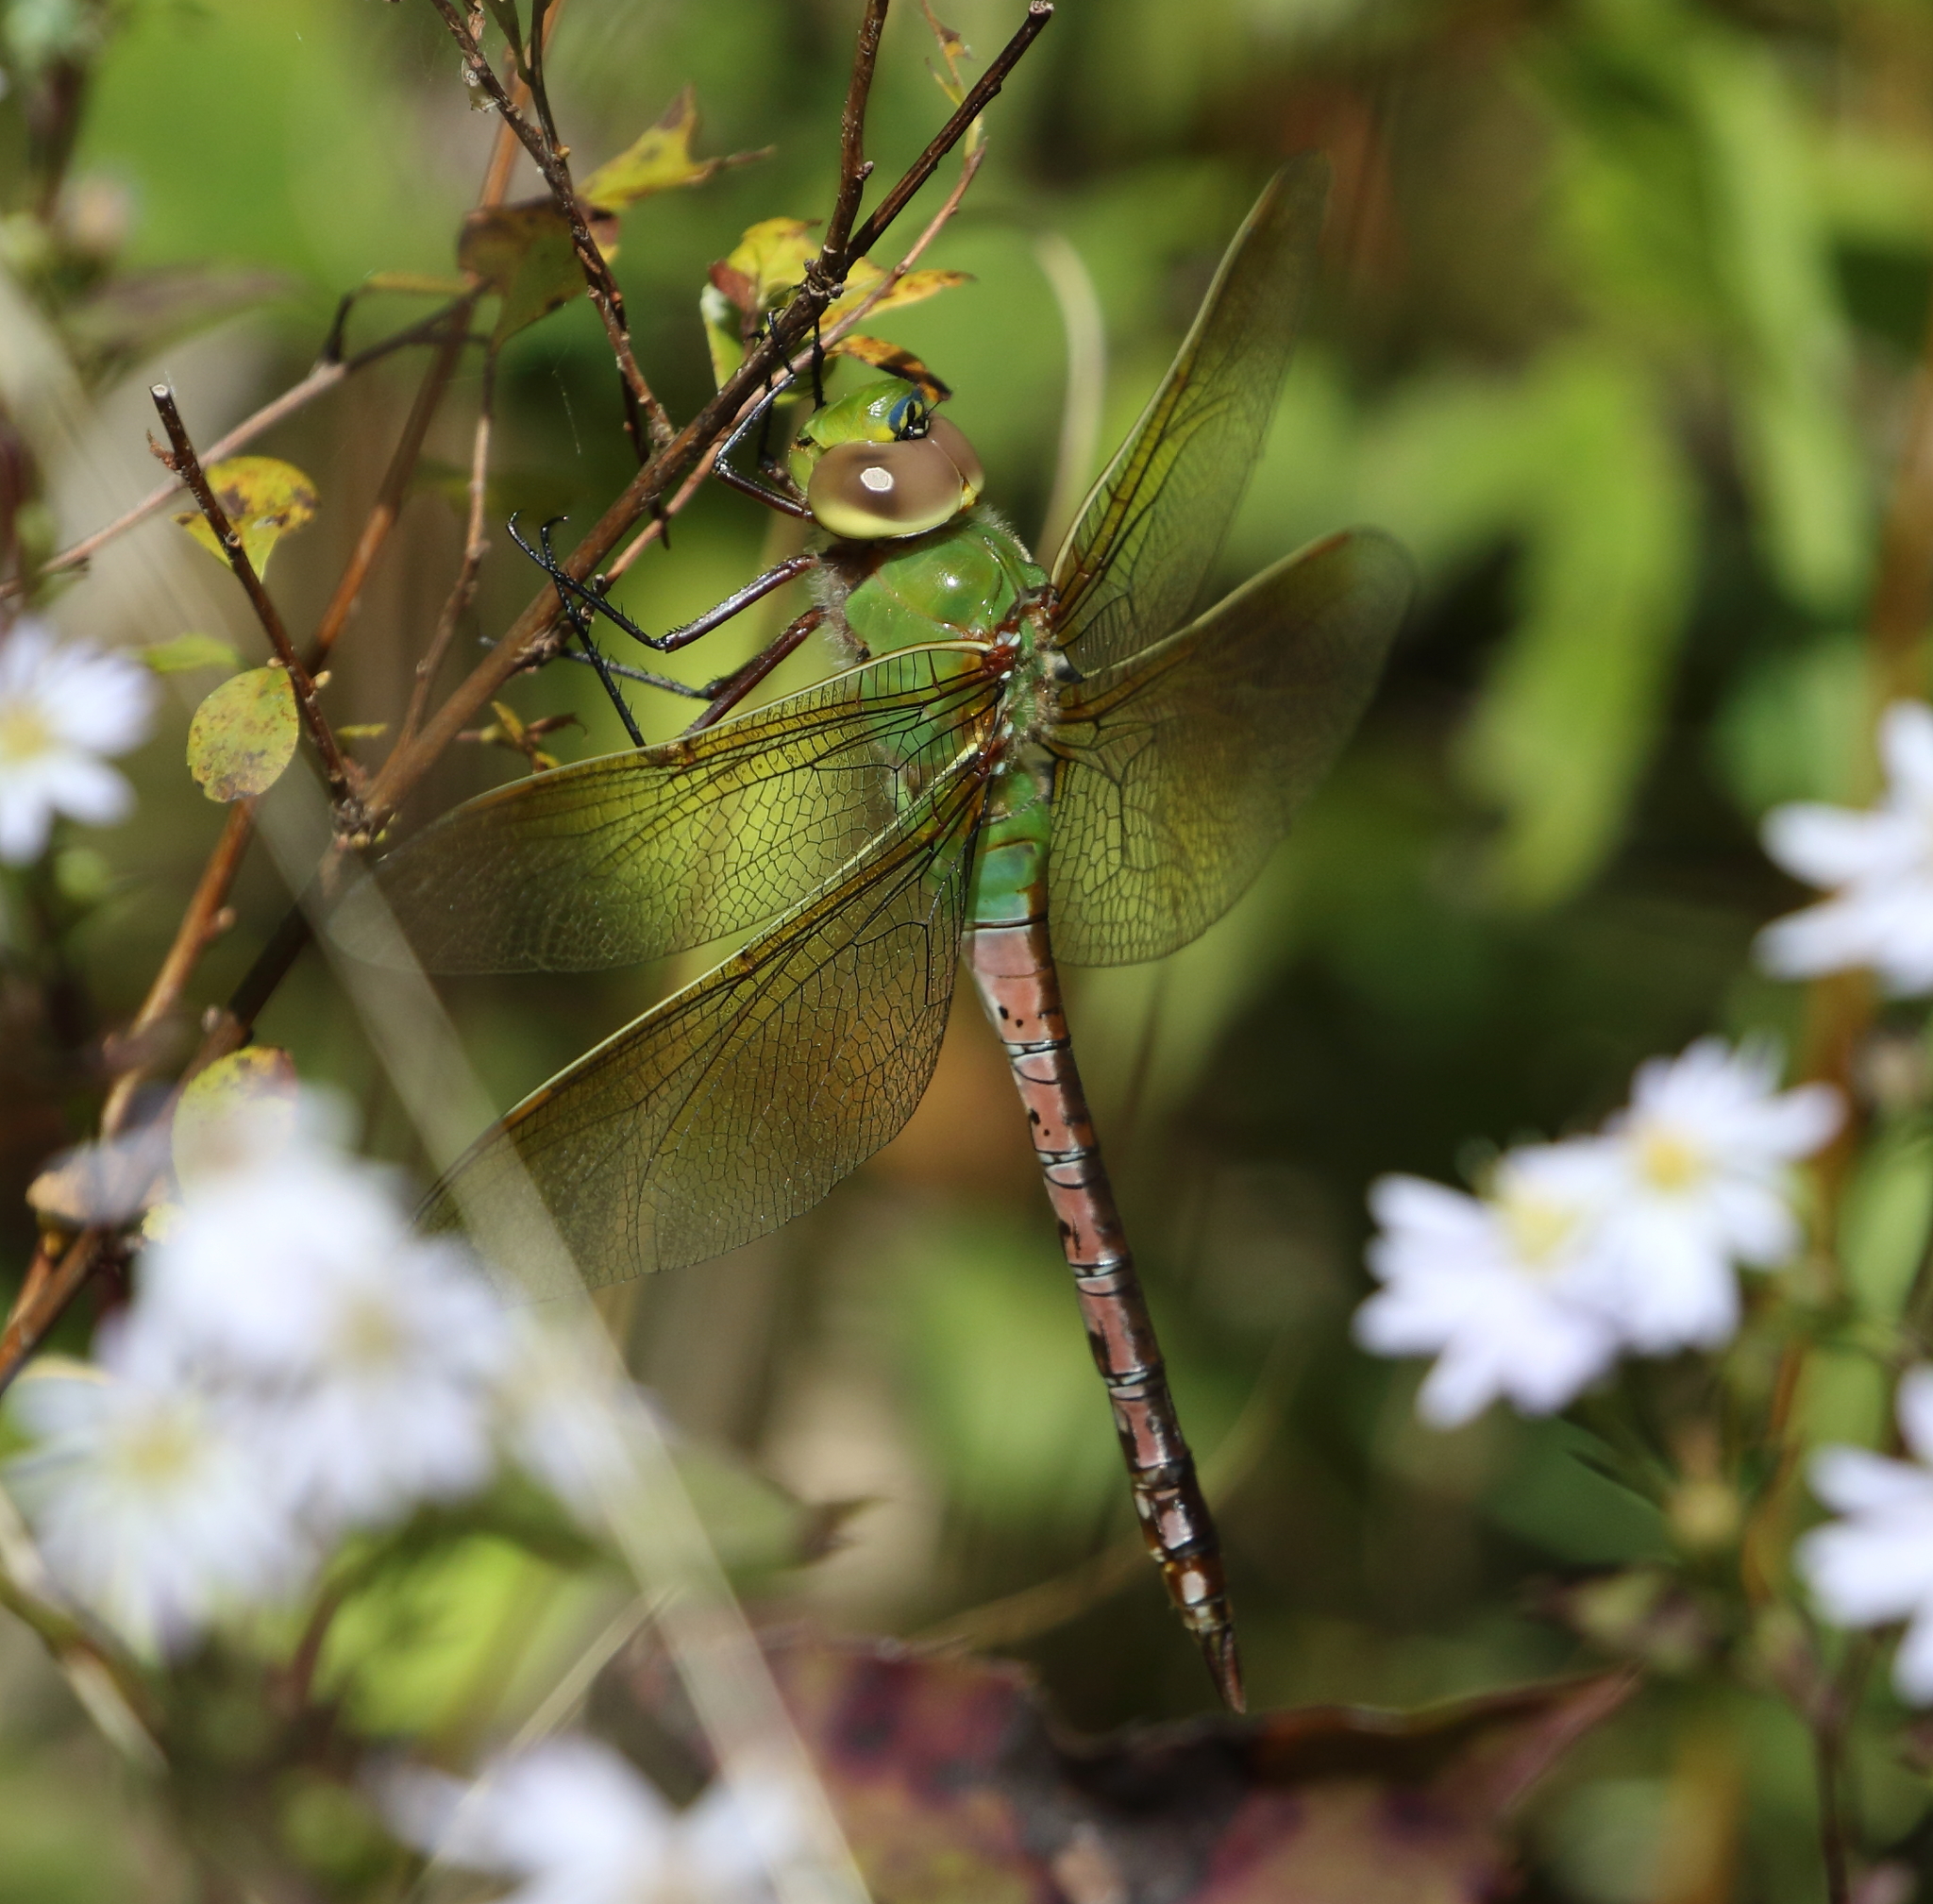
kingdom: Animalia
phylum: Arthropoda
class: Insecta
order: Odonata
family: Aeshnidae
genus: Anax
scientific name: Anax junius
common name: Common green darner
